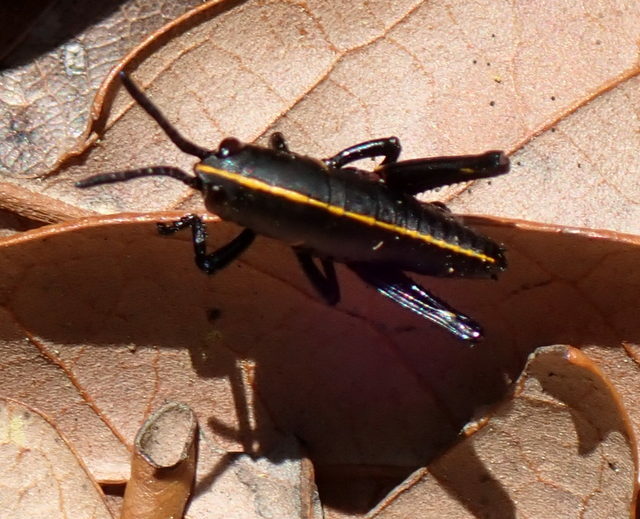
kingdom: Animalia
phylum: Arthropoda
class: Insecta
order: Orthoptera
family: Romaleidae
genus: Romalea
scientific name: Romalea microptera
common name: Eastern lubber grasshopper
